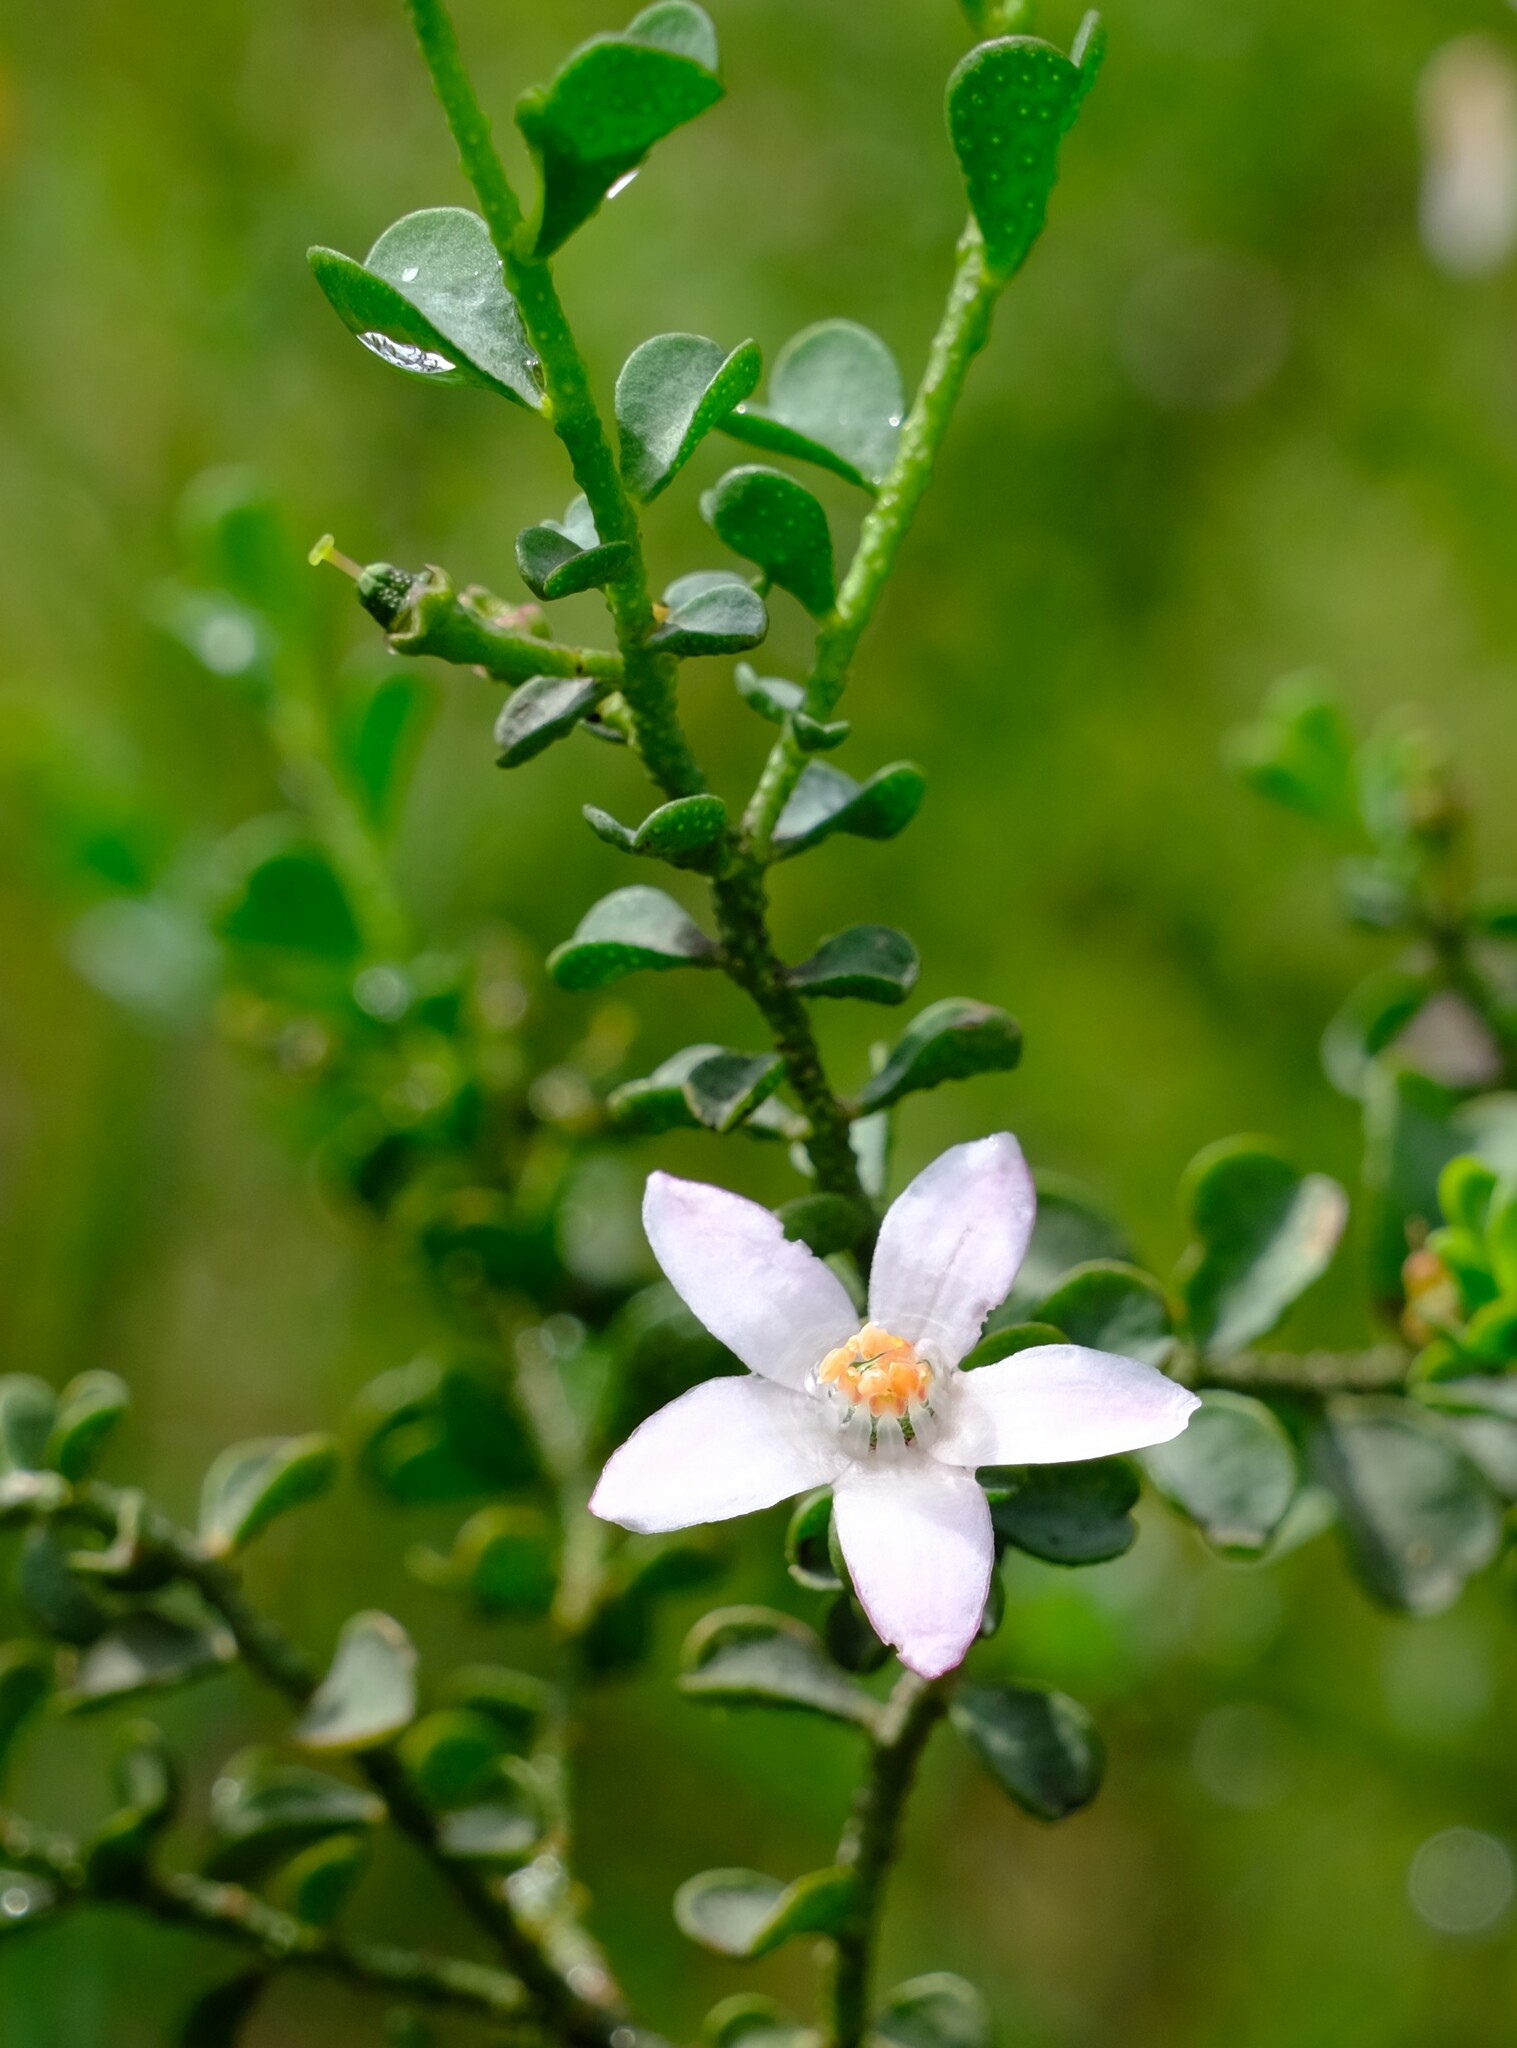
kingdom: Plantae
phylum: Tracheophyta
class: Magnoliopsida
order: Sapindales
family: Rutaceae
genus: Philotheca
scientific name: Philotheca verrucosa
